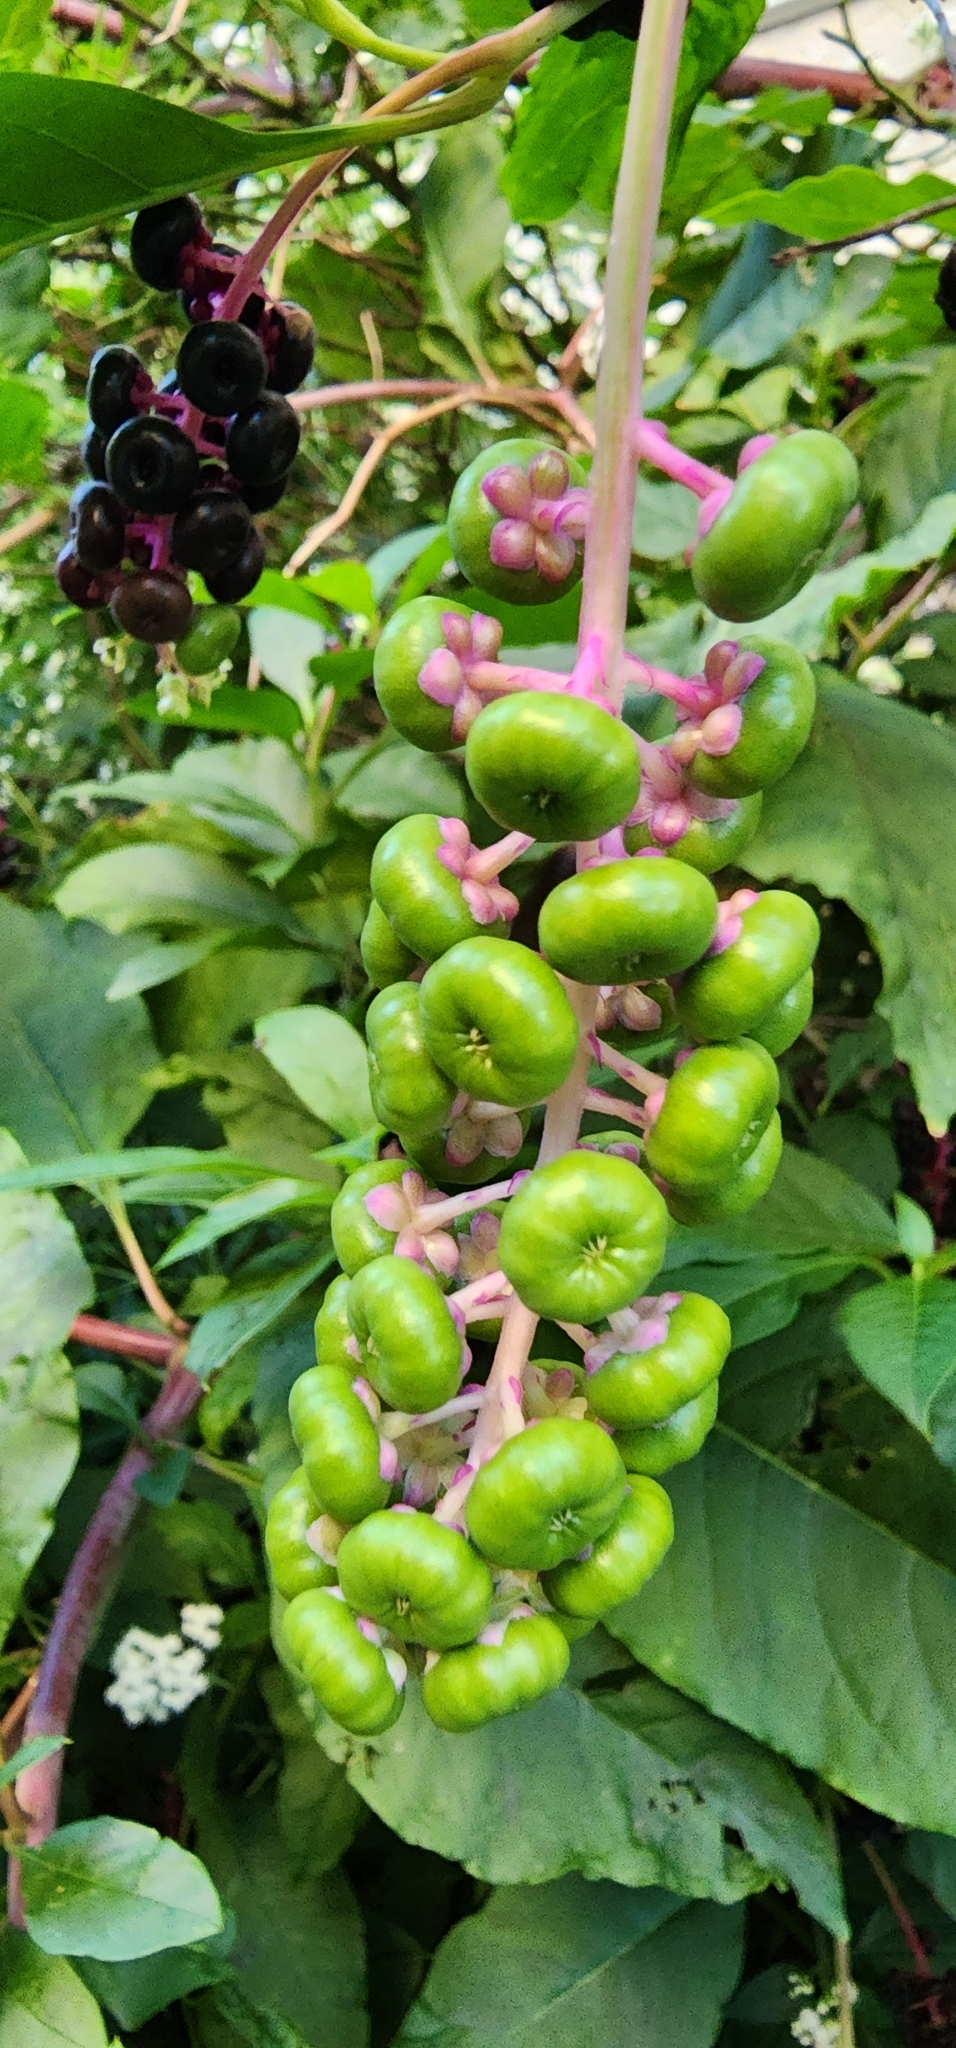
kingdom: Plantae
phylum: Tracheophyta
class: Magnoliopsida
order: Caryophyllales
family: Phytolaccaceae
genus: Phytolacca
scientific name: Phytolacca americana
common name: American pokeweed
